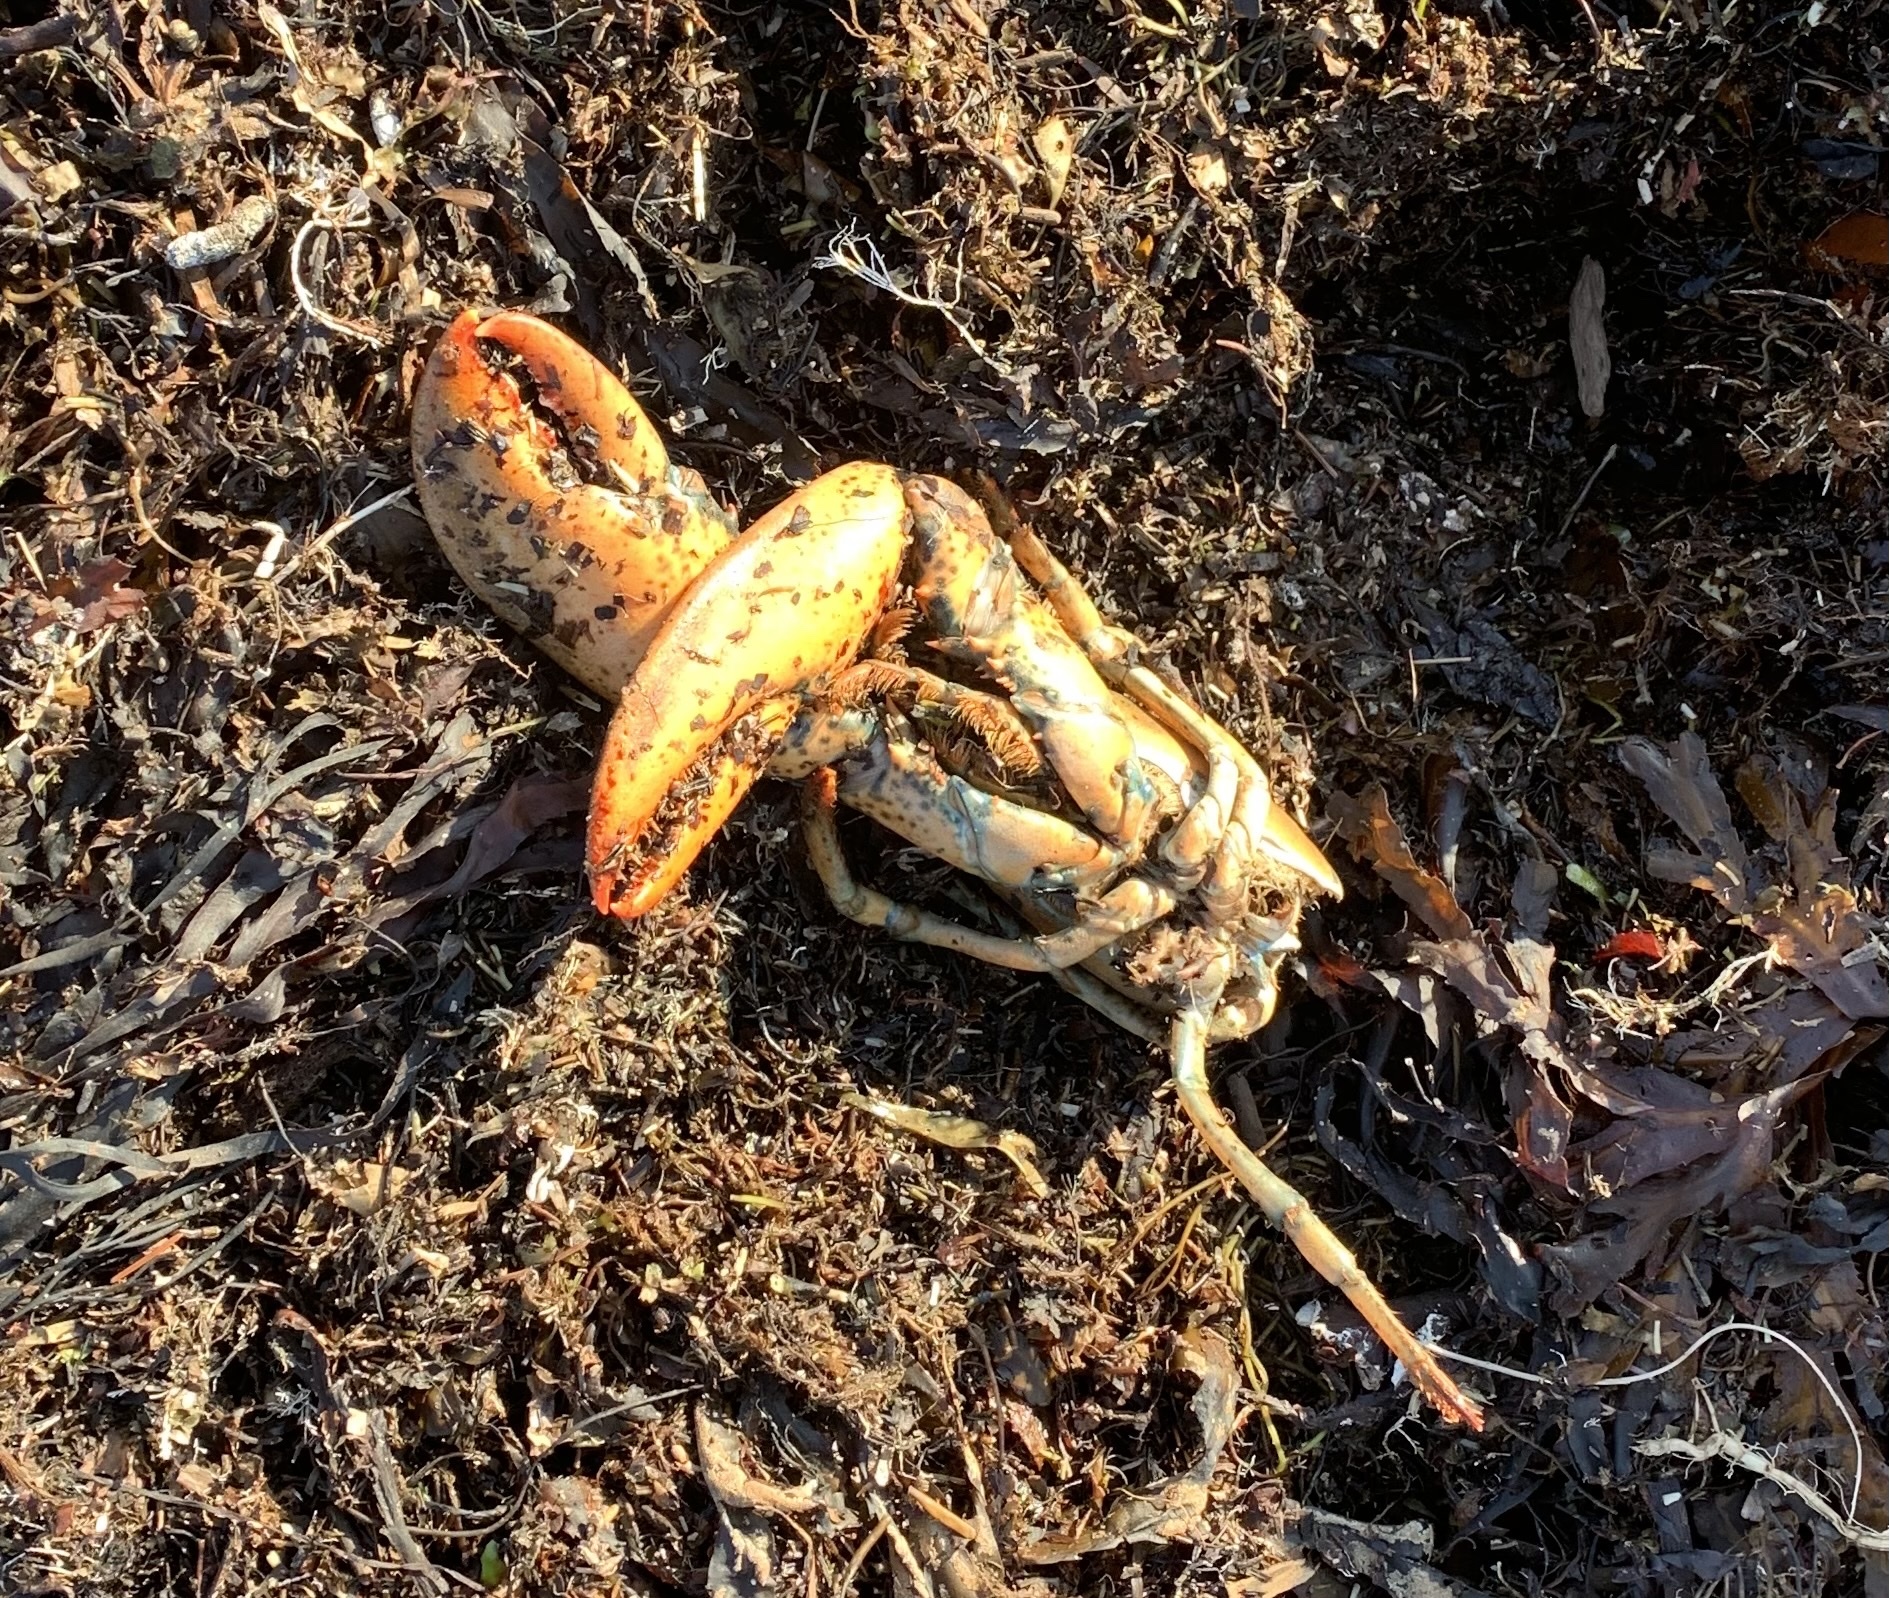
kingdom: Animalia
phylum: Arthropoda
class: Malacostraca
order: Decapoda
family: Nephropidae
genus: Homarus
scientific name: Homarus americanus
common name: American lobster
